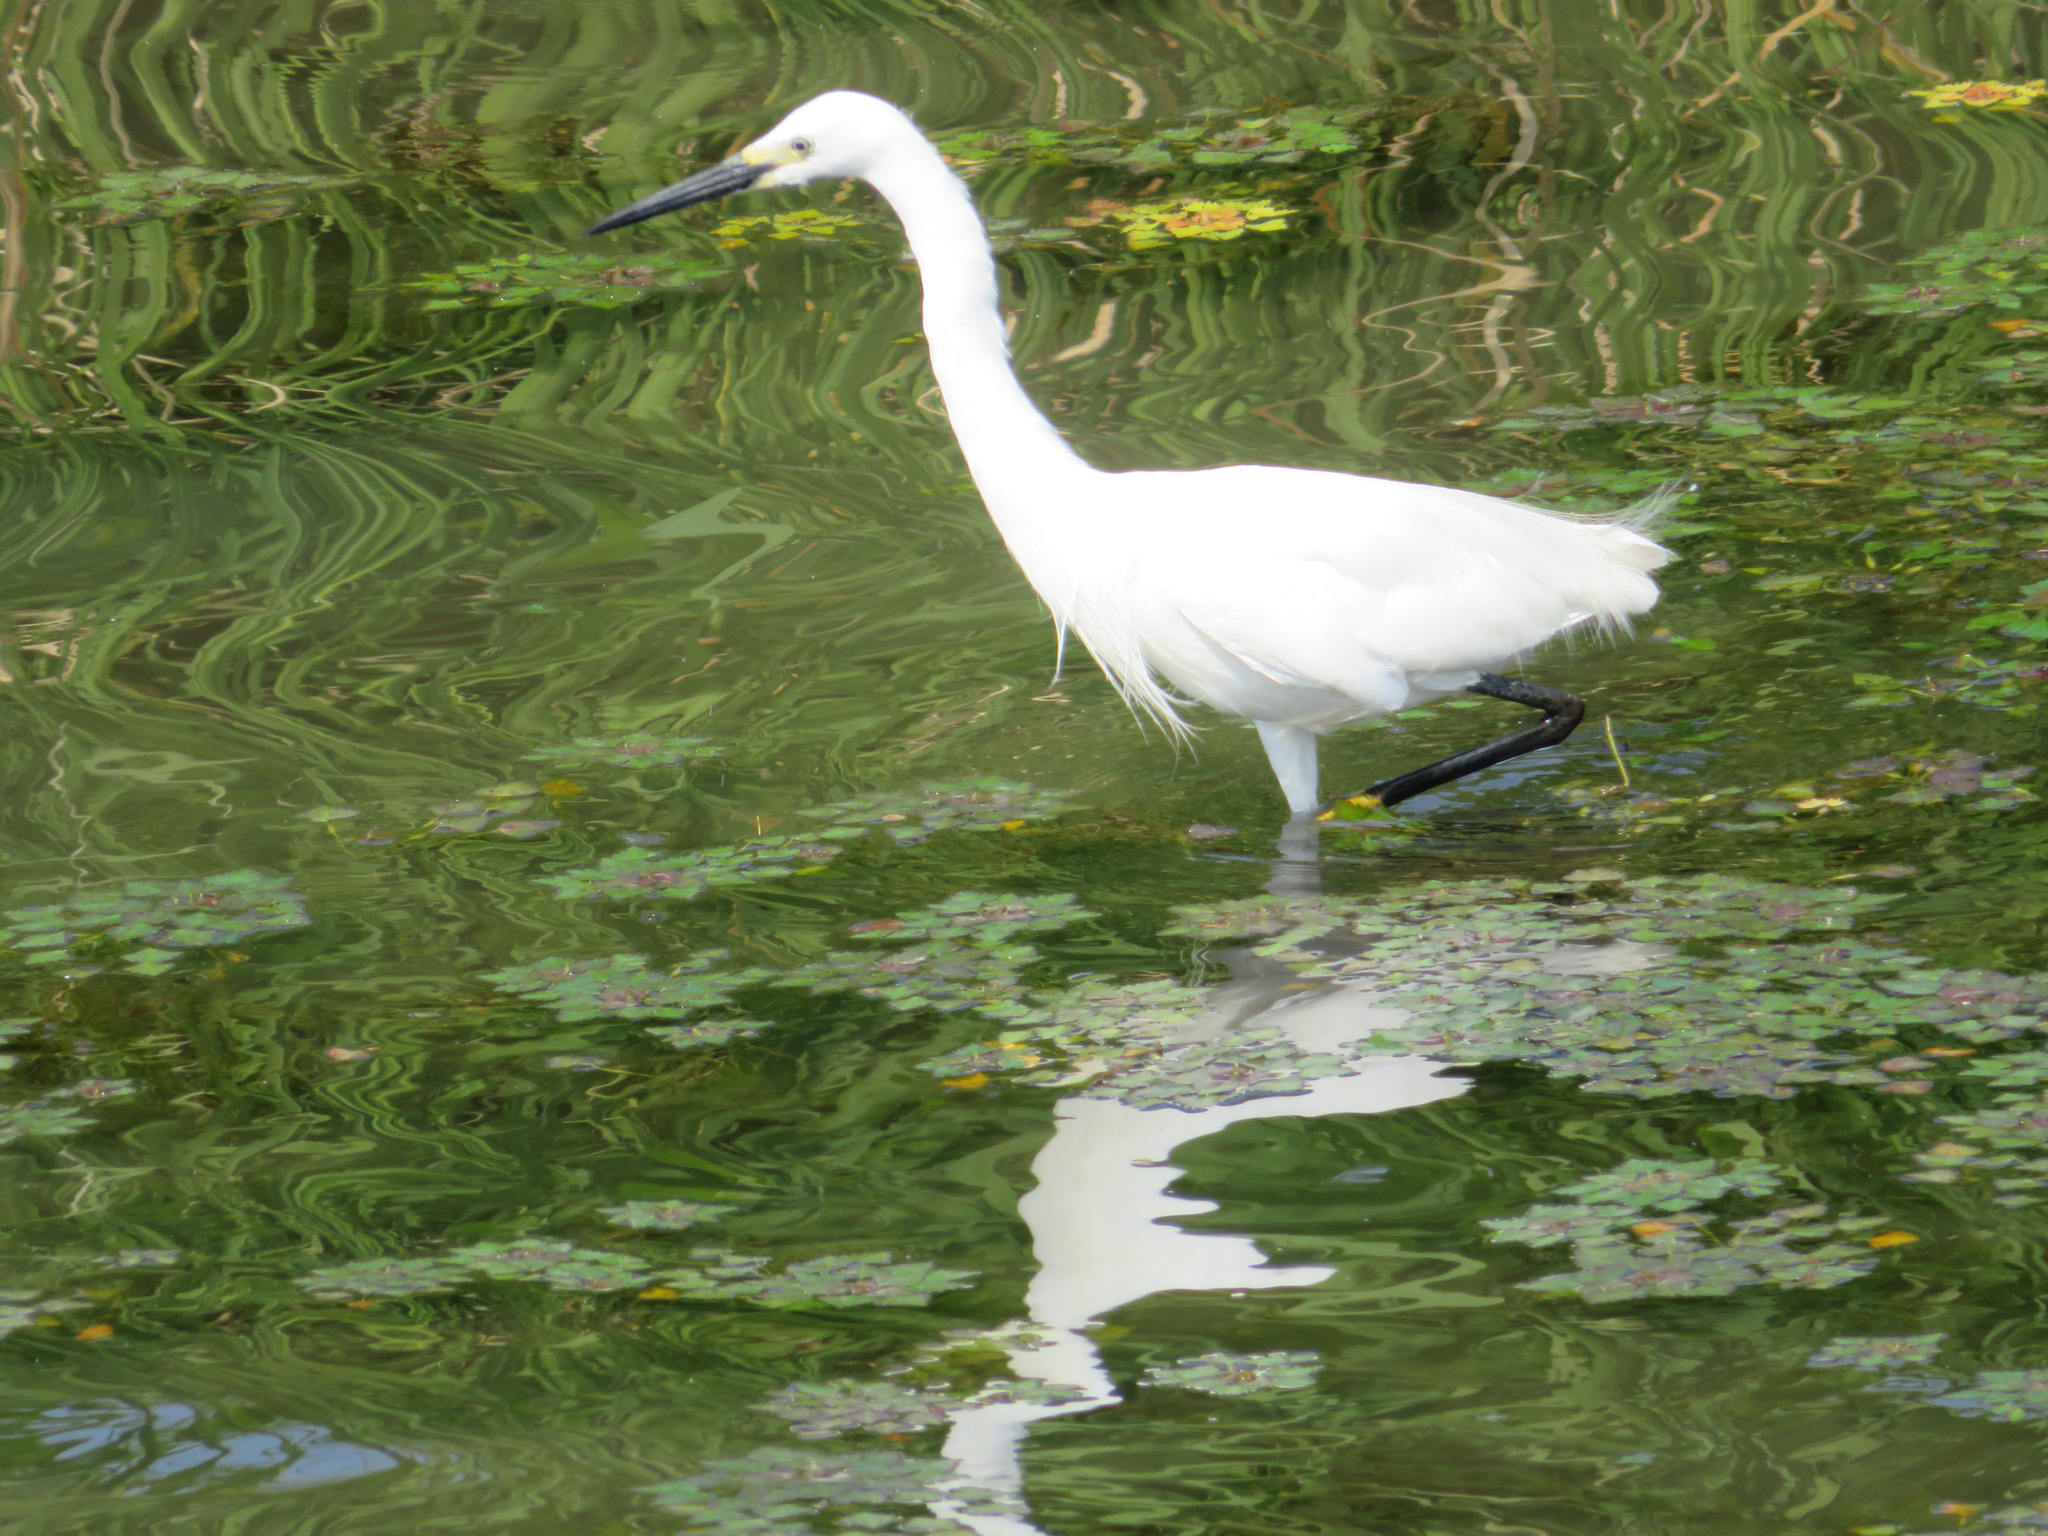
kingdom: Animalia
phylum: Chordata
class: Aves
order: Pelecaniformes
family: Ardeidae
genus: Egretta
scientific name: Egretta garzetta
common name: Little egret
